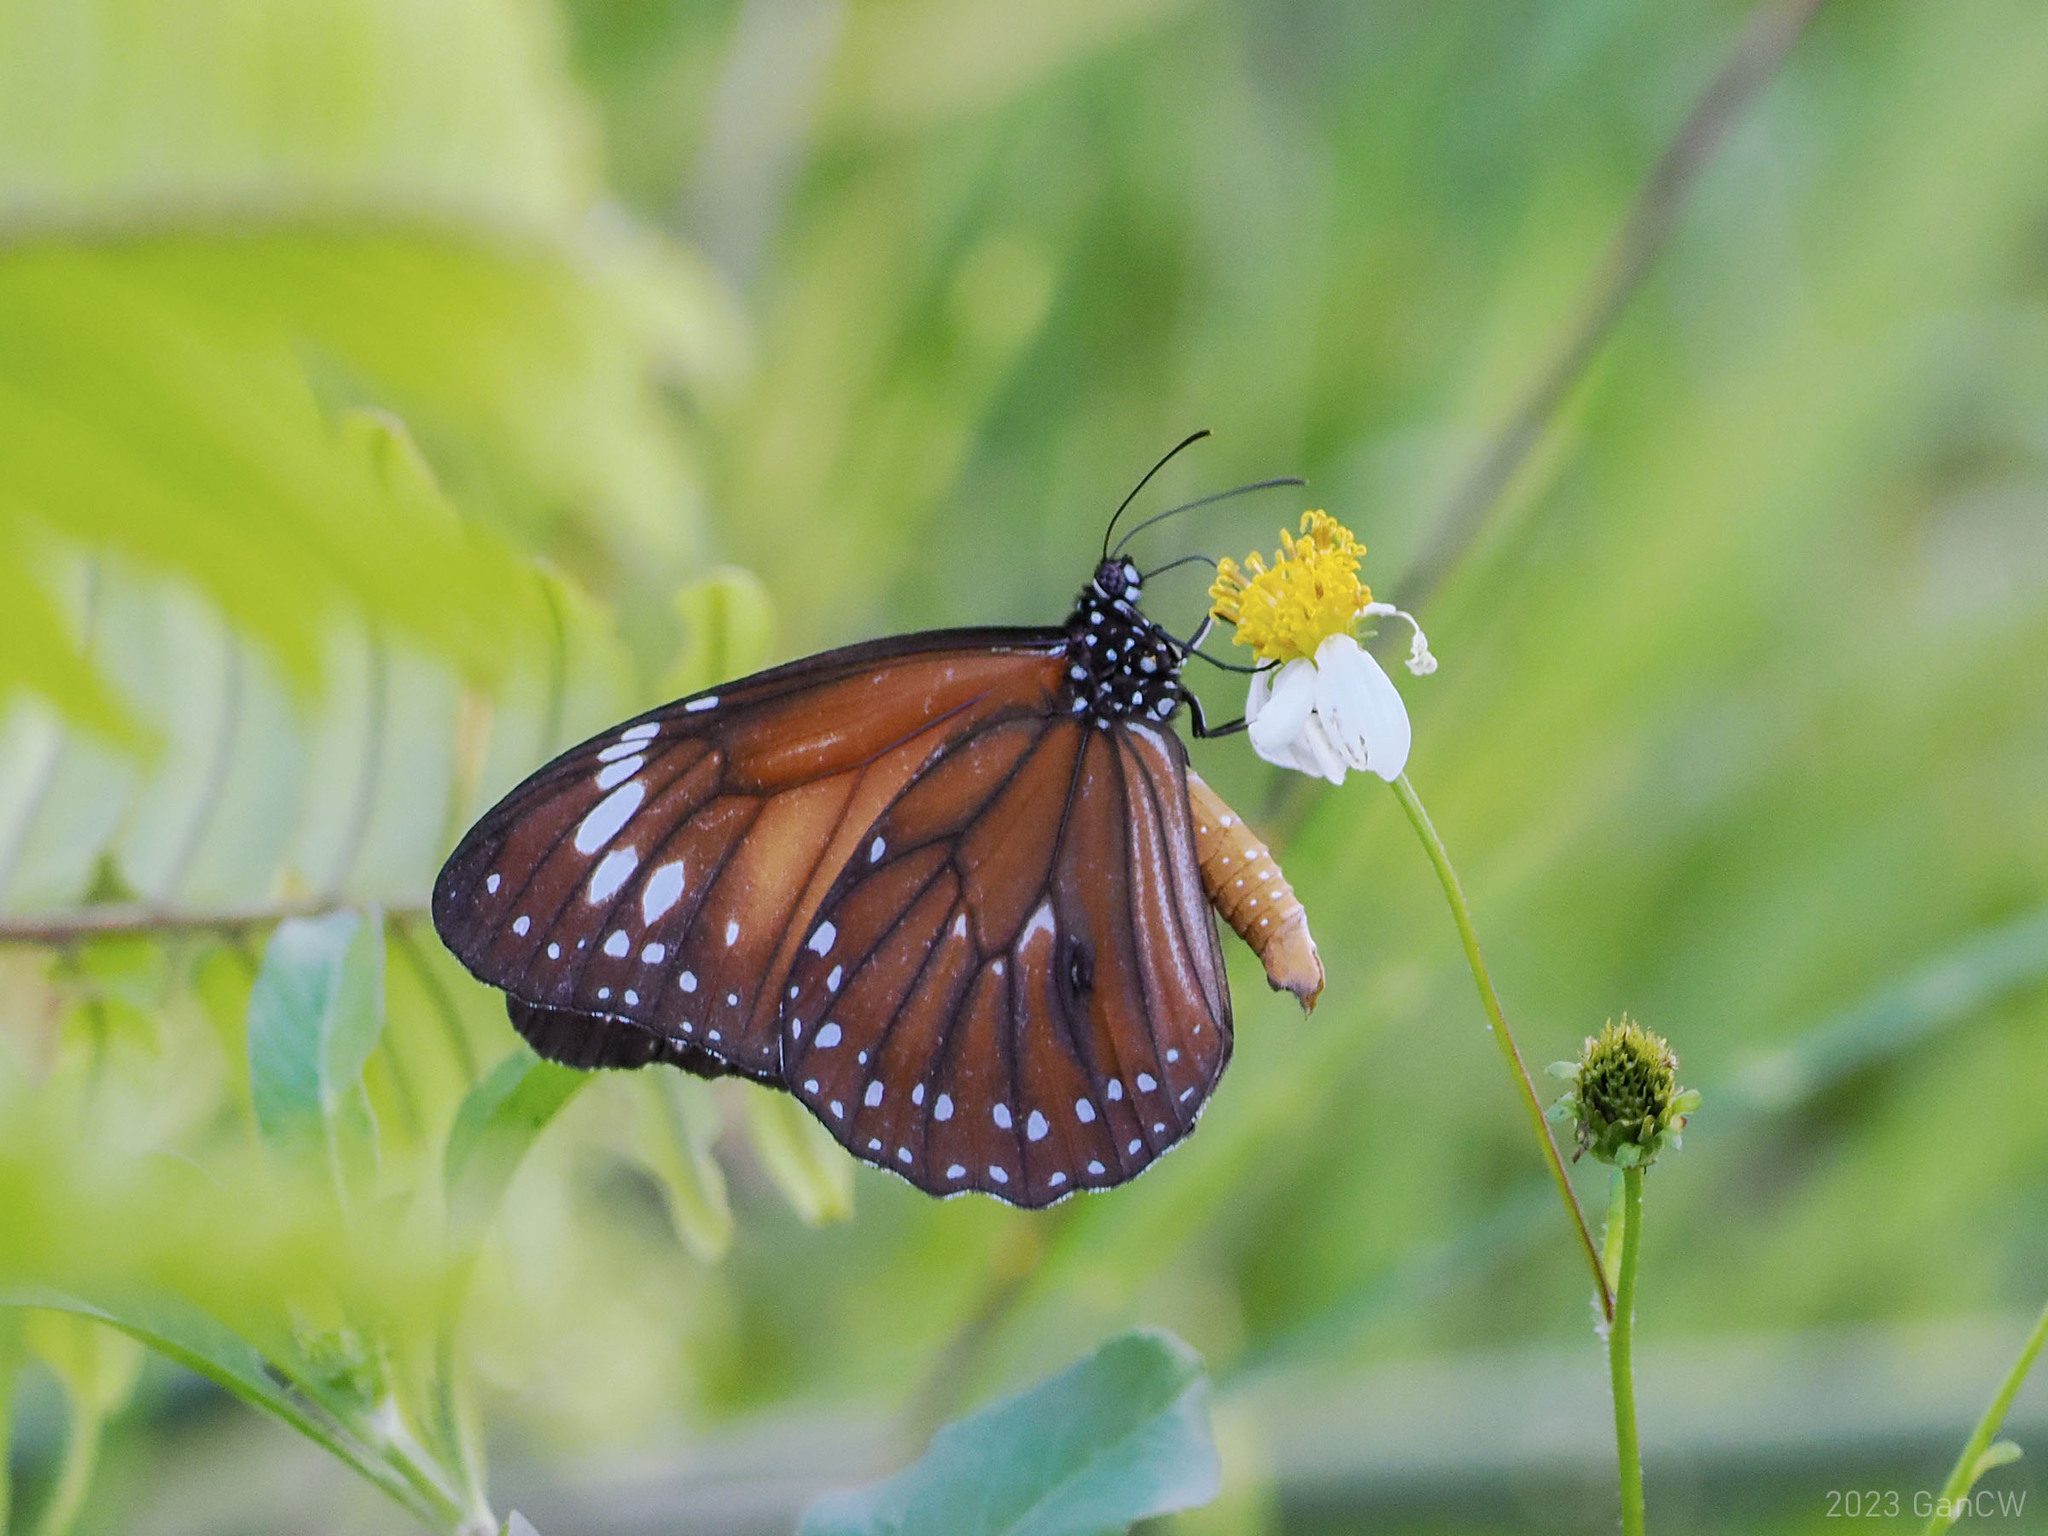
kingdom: Animalia
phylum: Arthropoda
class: Insecta
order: Lepidoptera
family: Nymphalidae
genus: Danaus
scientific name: Danaus affinis
